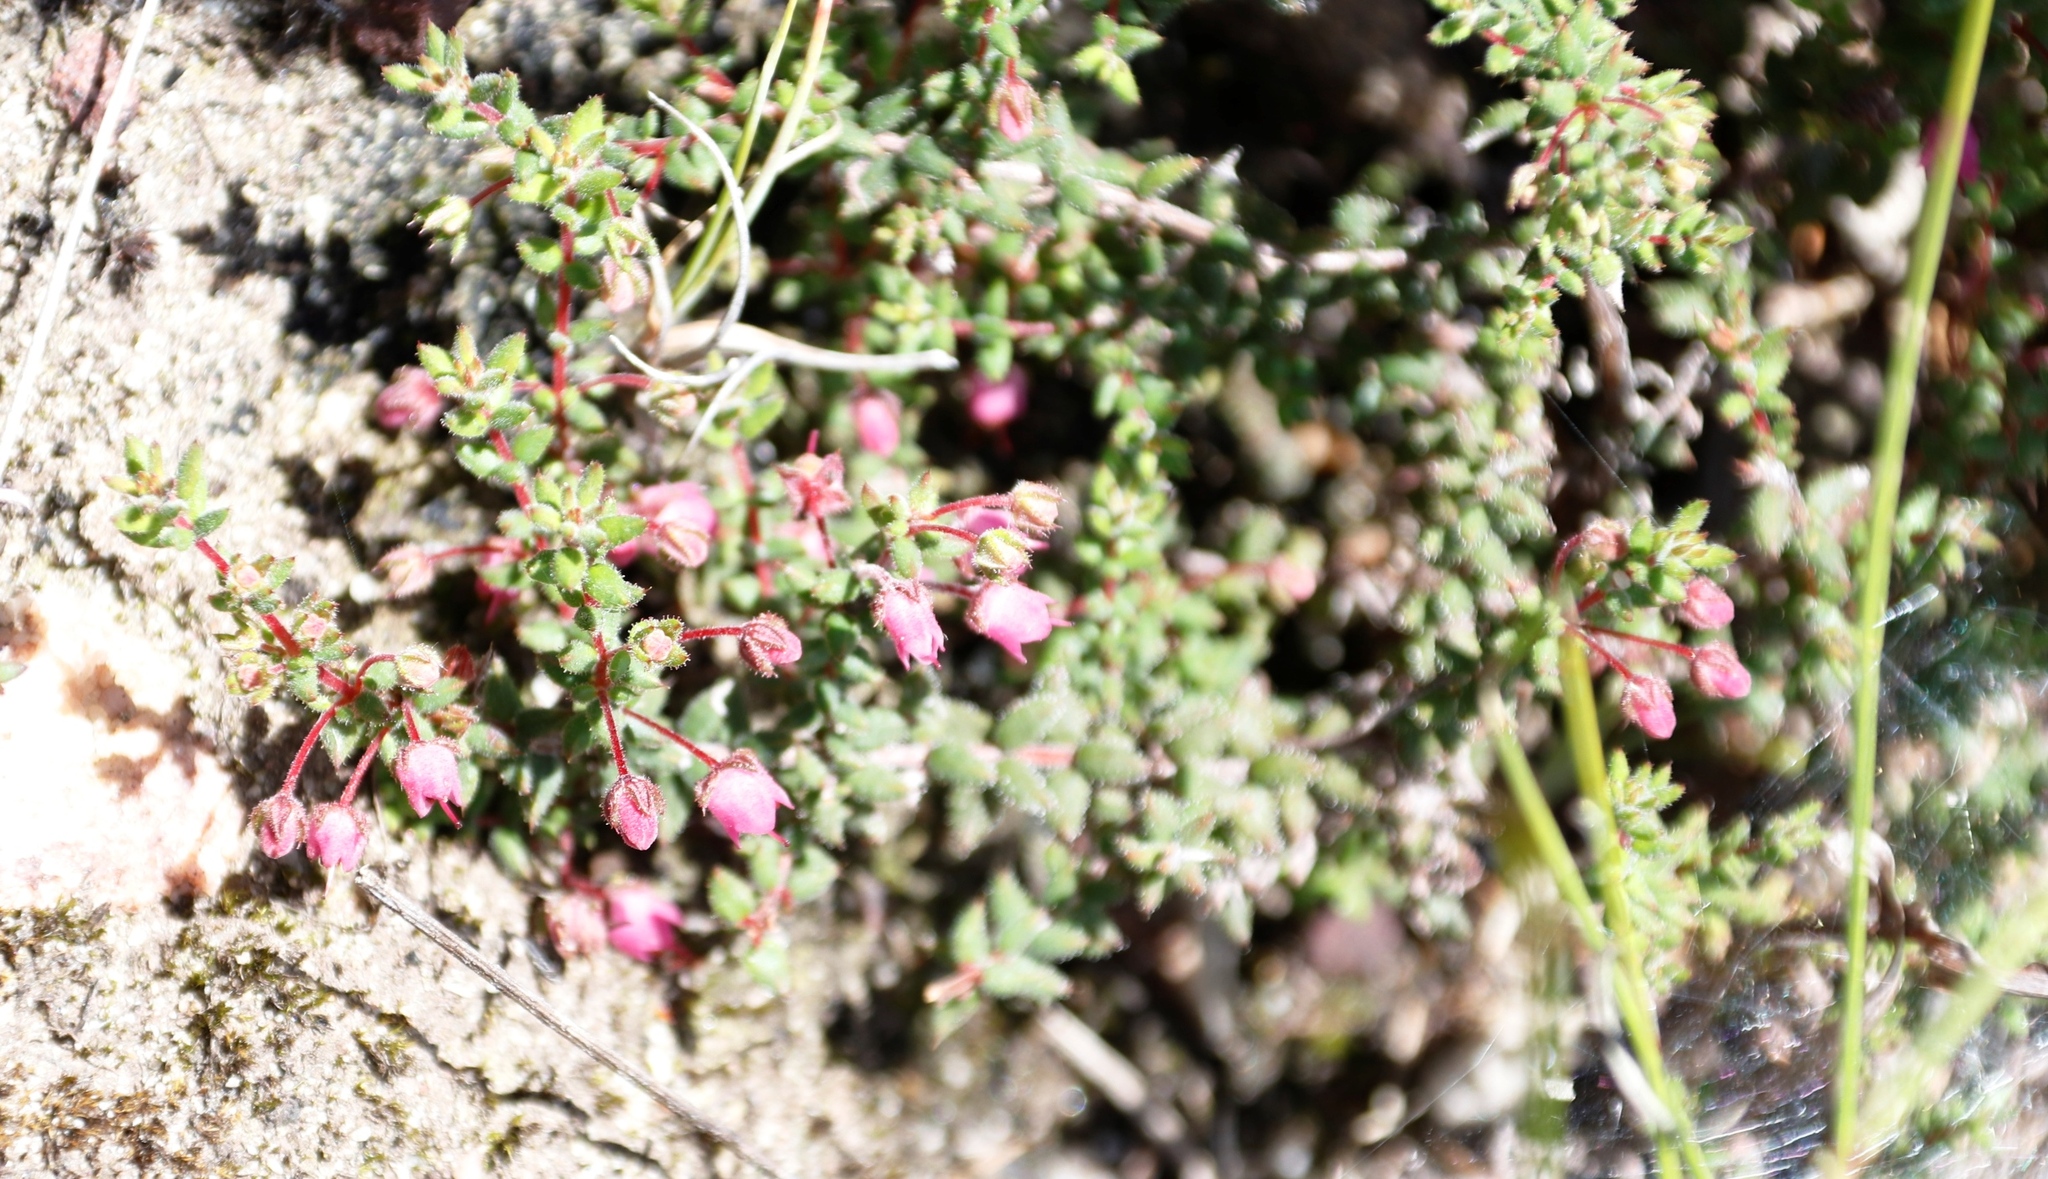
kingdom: Plantae
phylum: Tracheophyta
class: Magnoliopsida
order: Ericales
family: Ericaceae
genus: Erica
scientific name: Erica planifolia
